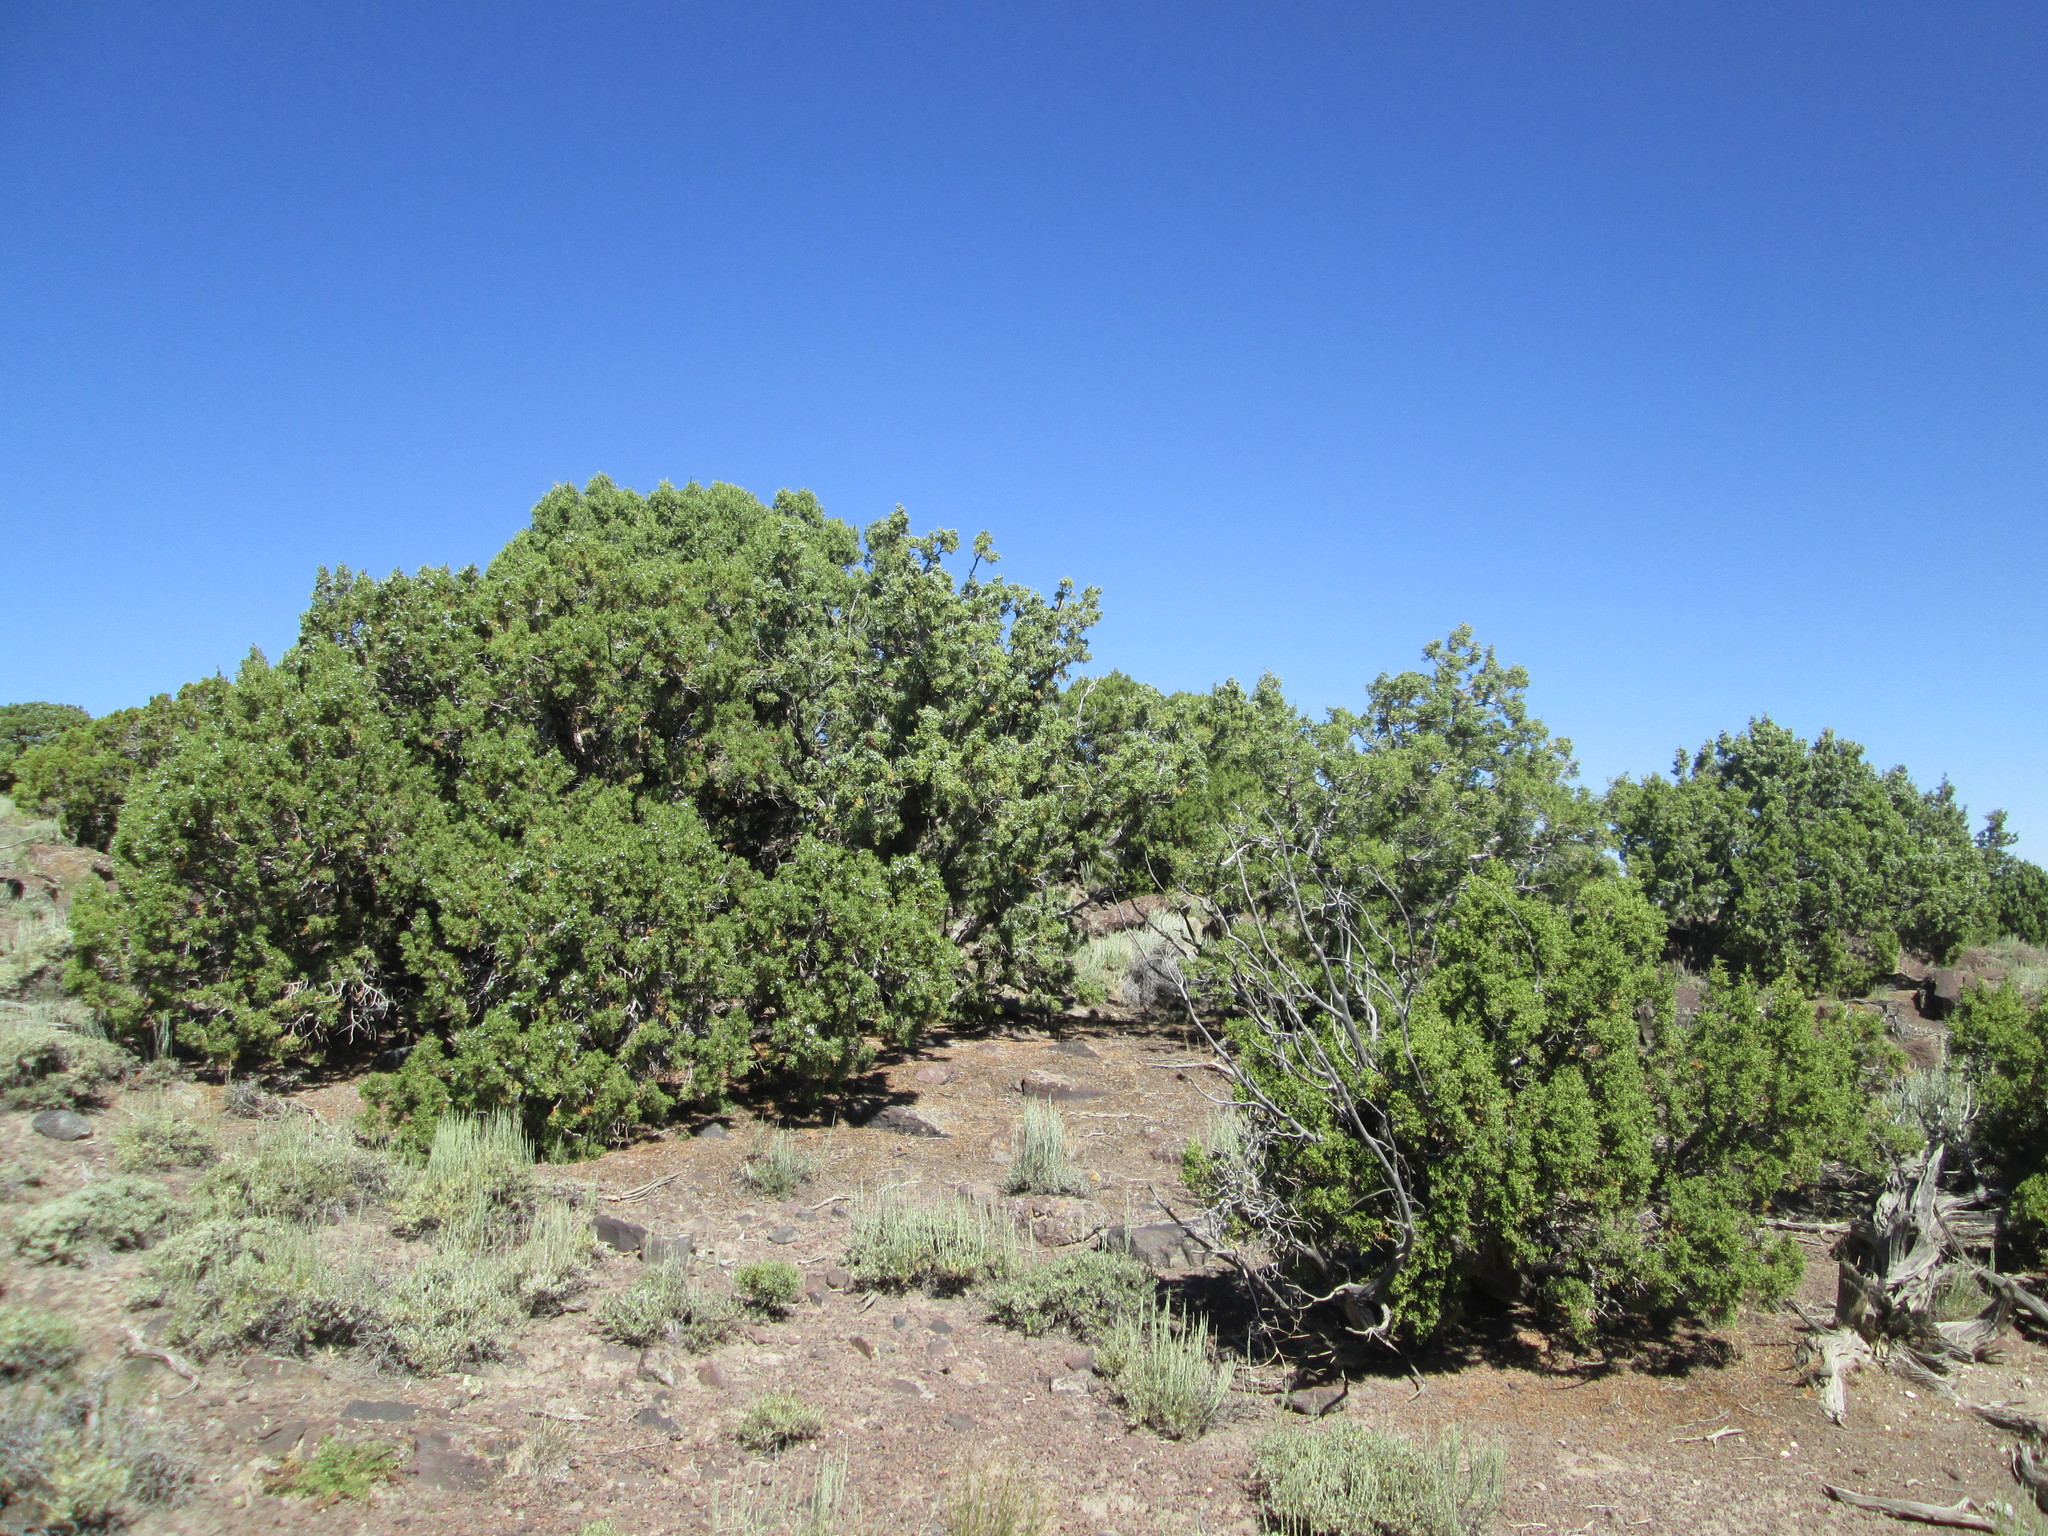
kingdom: Plantae
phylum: Tracheophyta
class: Pinopsida
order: Pinales
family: Cupressaceae
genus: Juniperus
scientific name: Juniperus osteosperma
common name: Utah juniper
